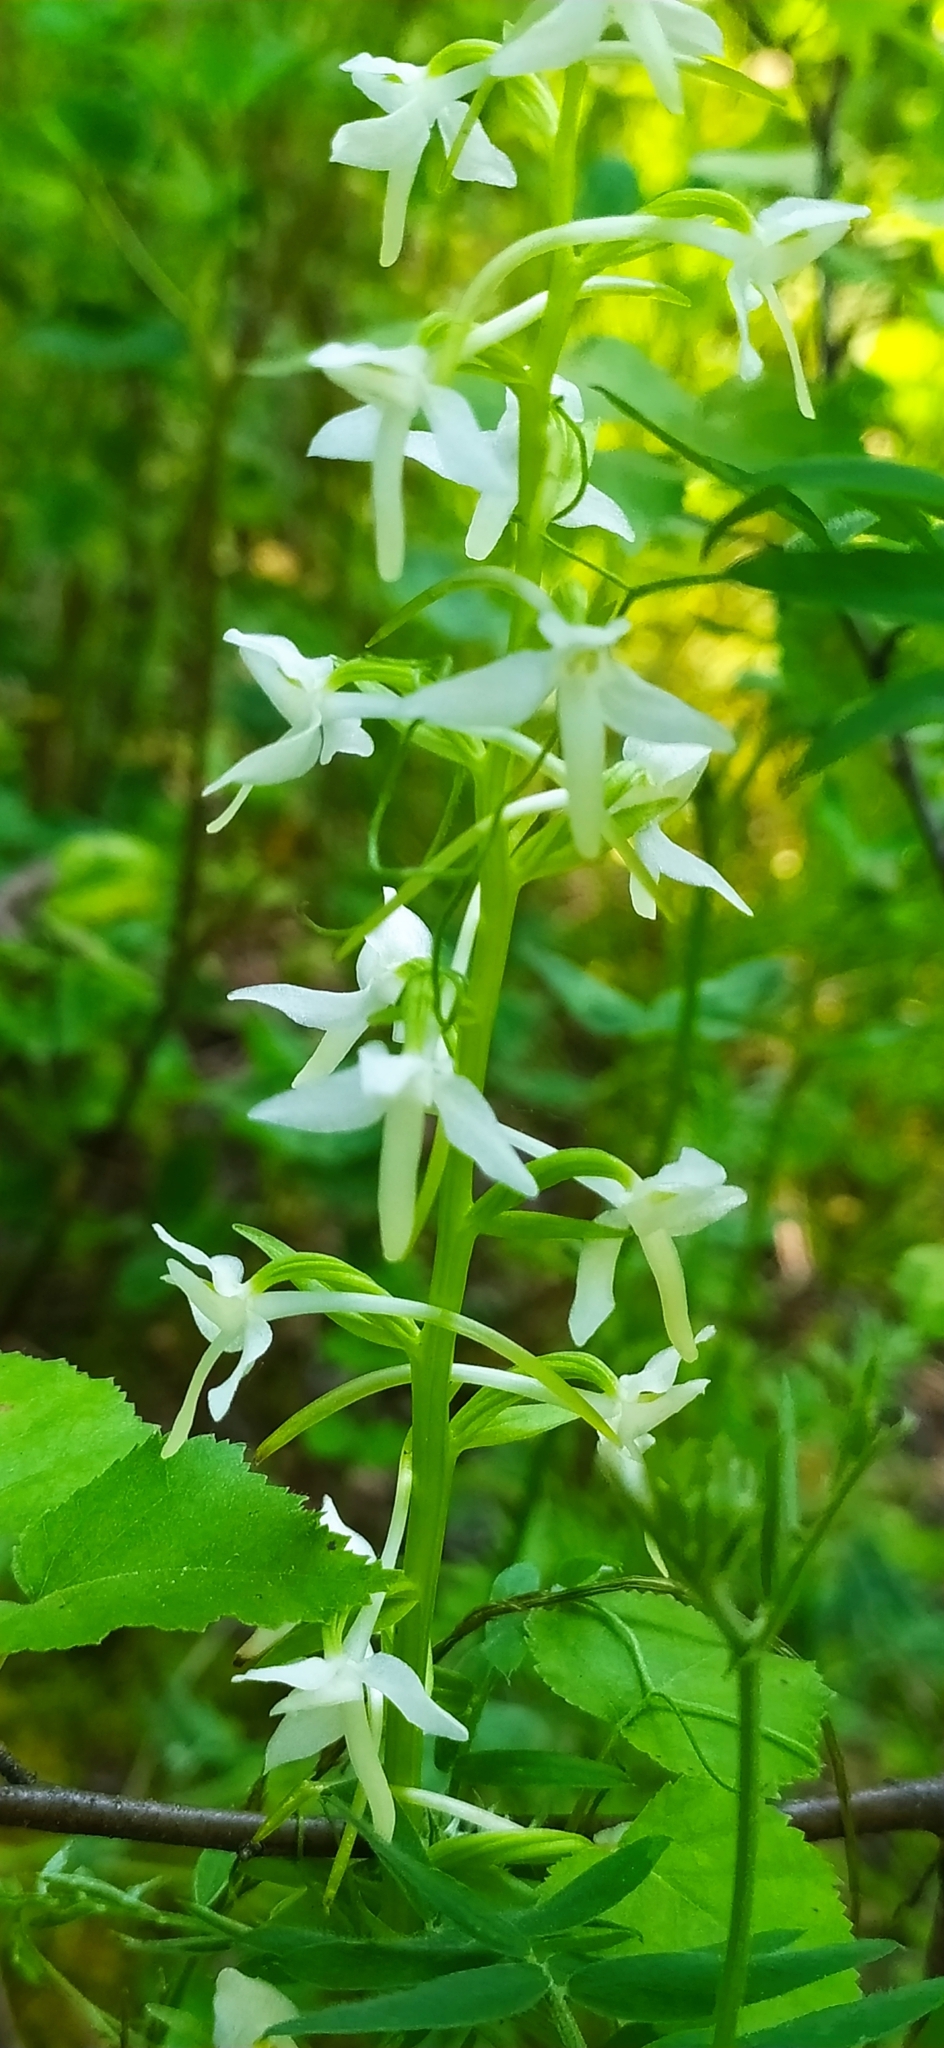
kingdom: Plantae
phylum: Tracheophyta
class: Liliopsida
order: Asparagales
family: Orchidaceae
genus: Platanthera
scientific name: Platanthera bifolia
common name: Lesser butterfly-orchid
